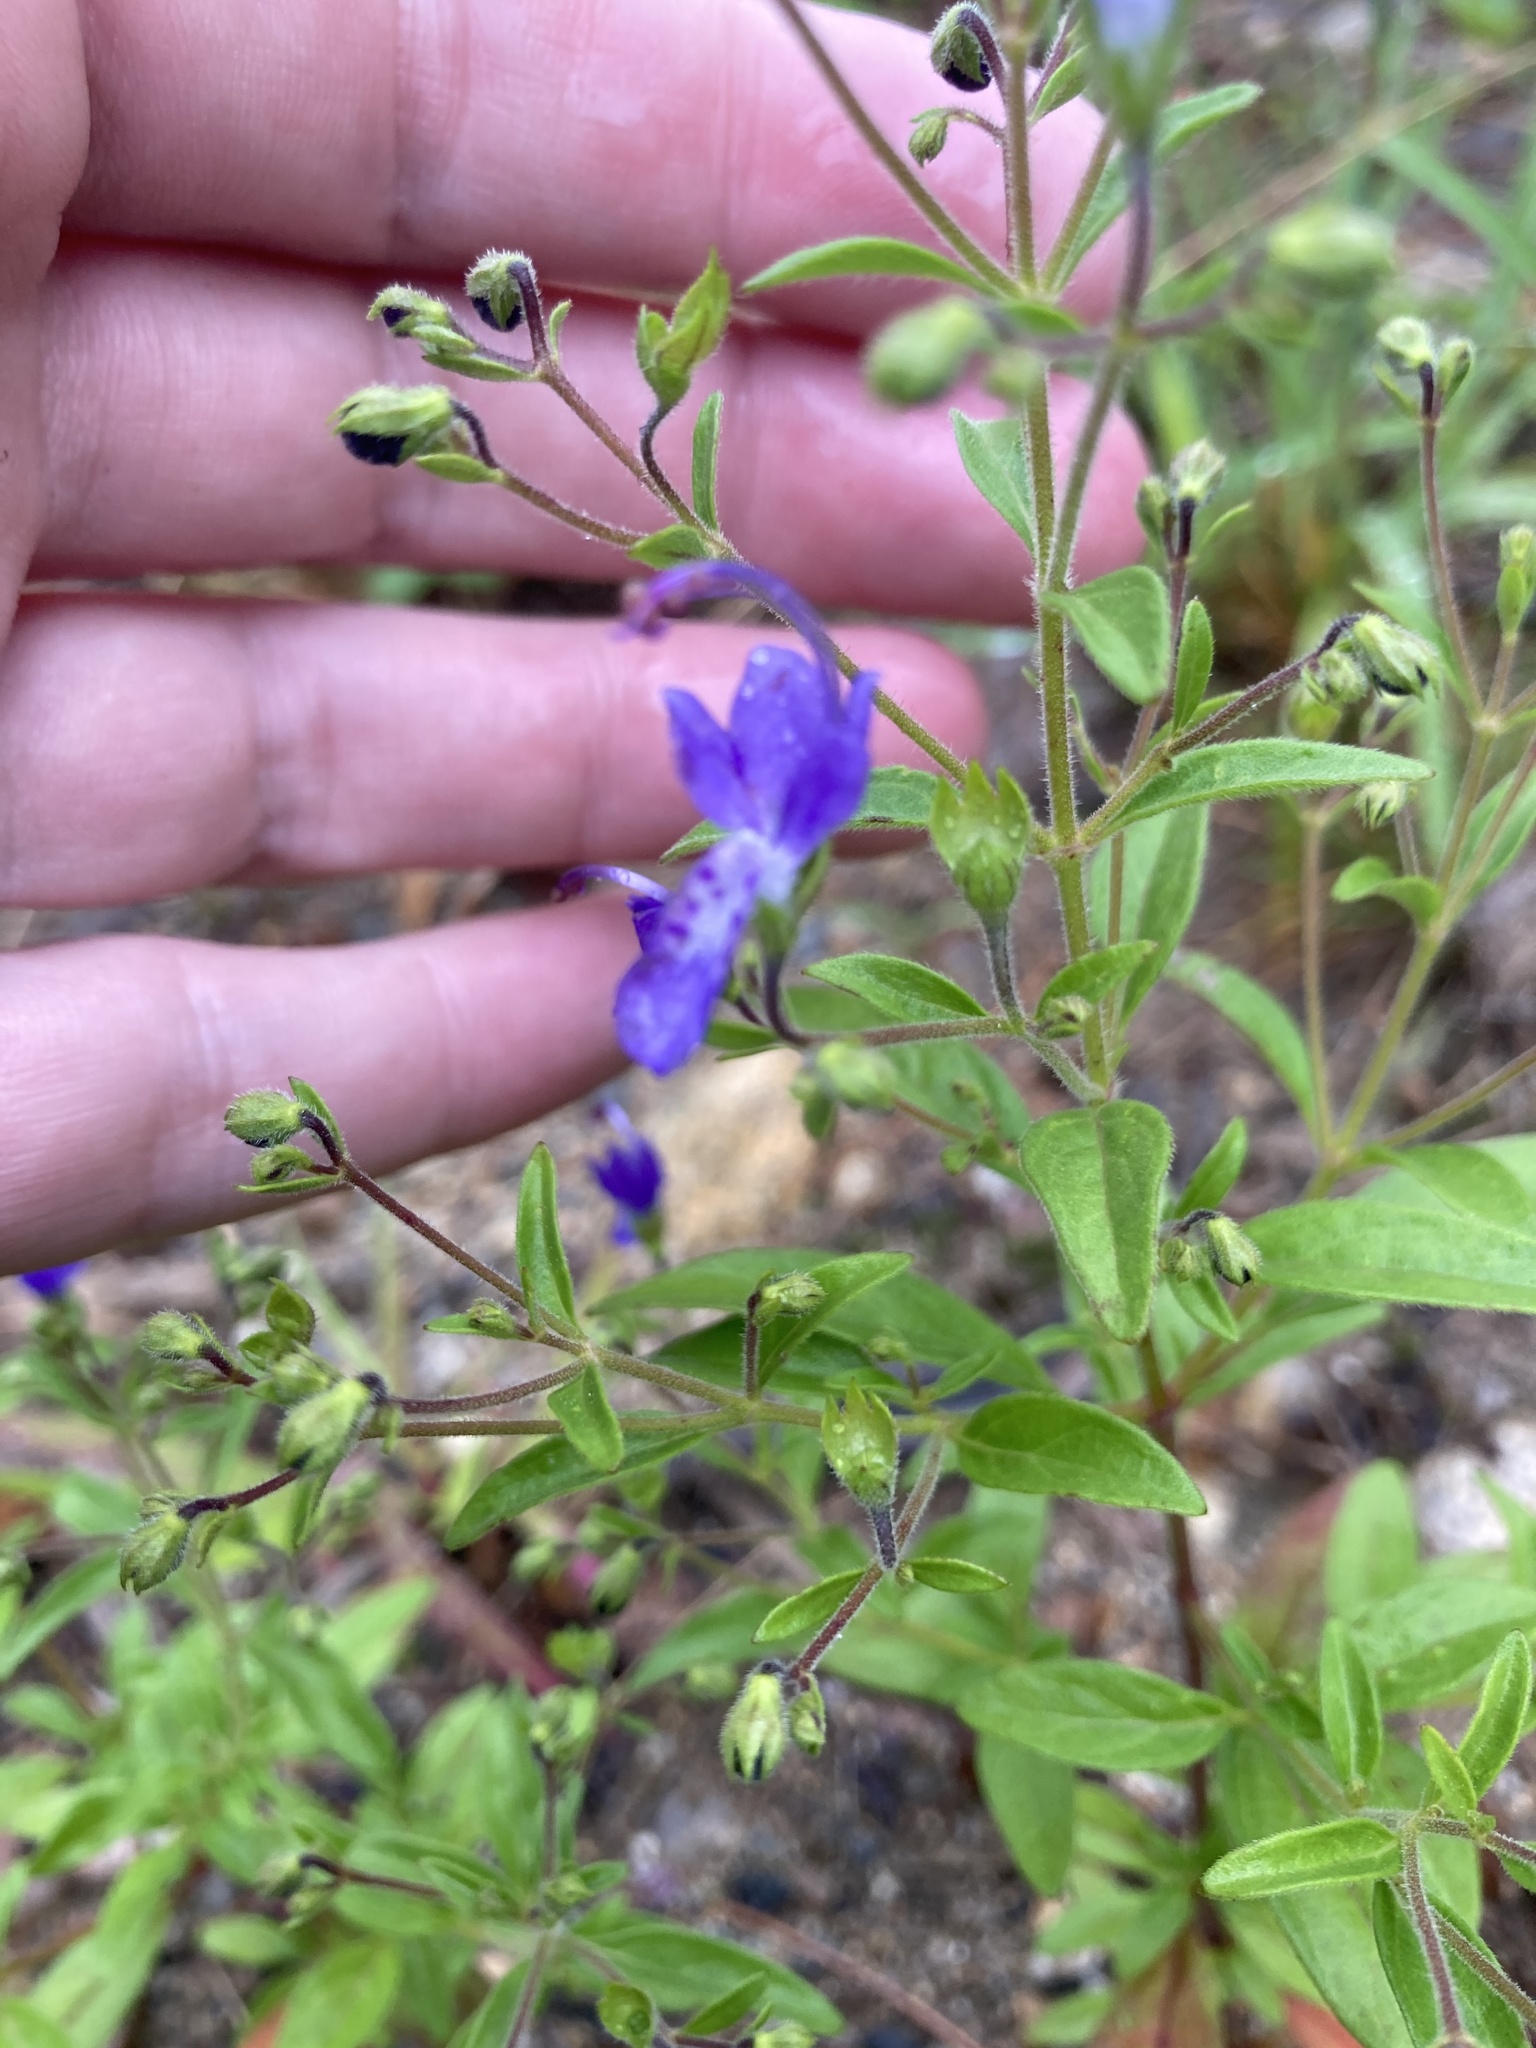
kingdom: Plantae
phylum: Tracheophyta
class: Magnoliopsida
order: Lamiales
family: Lamiaceae
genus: Trichostema
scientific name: Trichostema dichotomum
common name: Bastard pennyroyal
